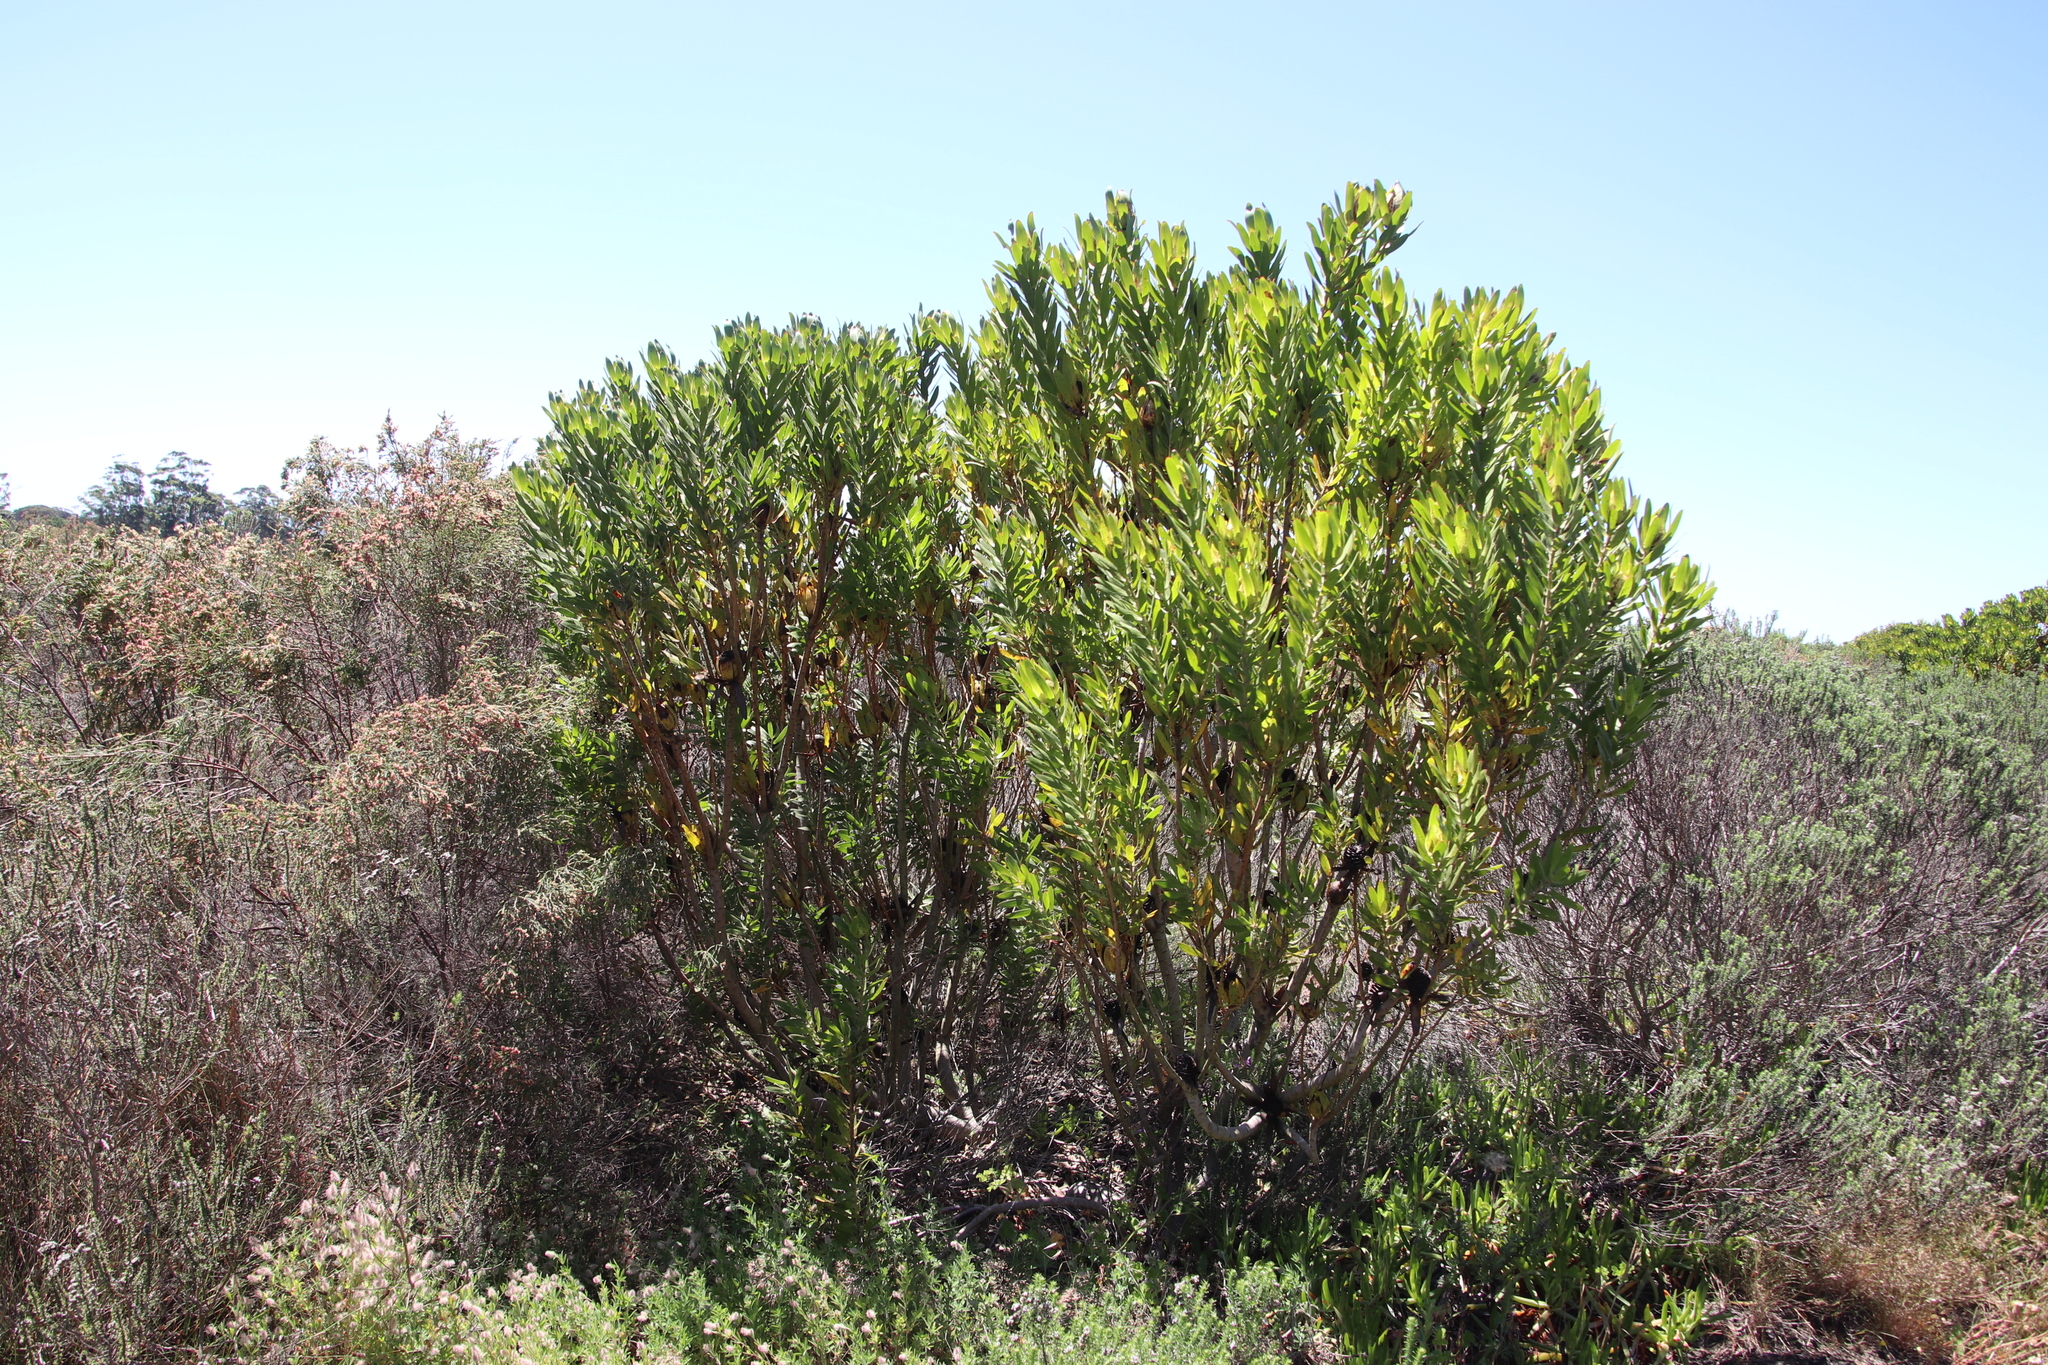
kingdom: Plantae
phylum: Tracheophyta
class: Magnoliopsida
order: Proteales
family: Proteaceae
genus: Leucadendron
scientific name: Leucadendron laureolum
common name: Golden sunshinebush
